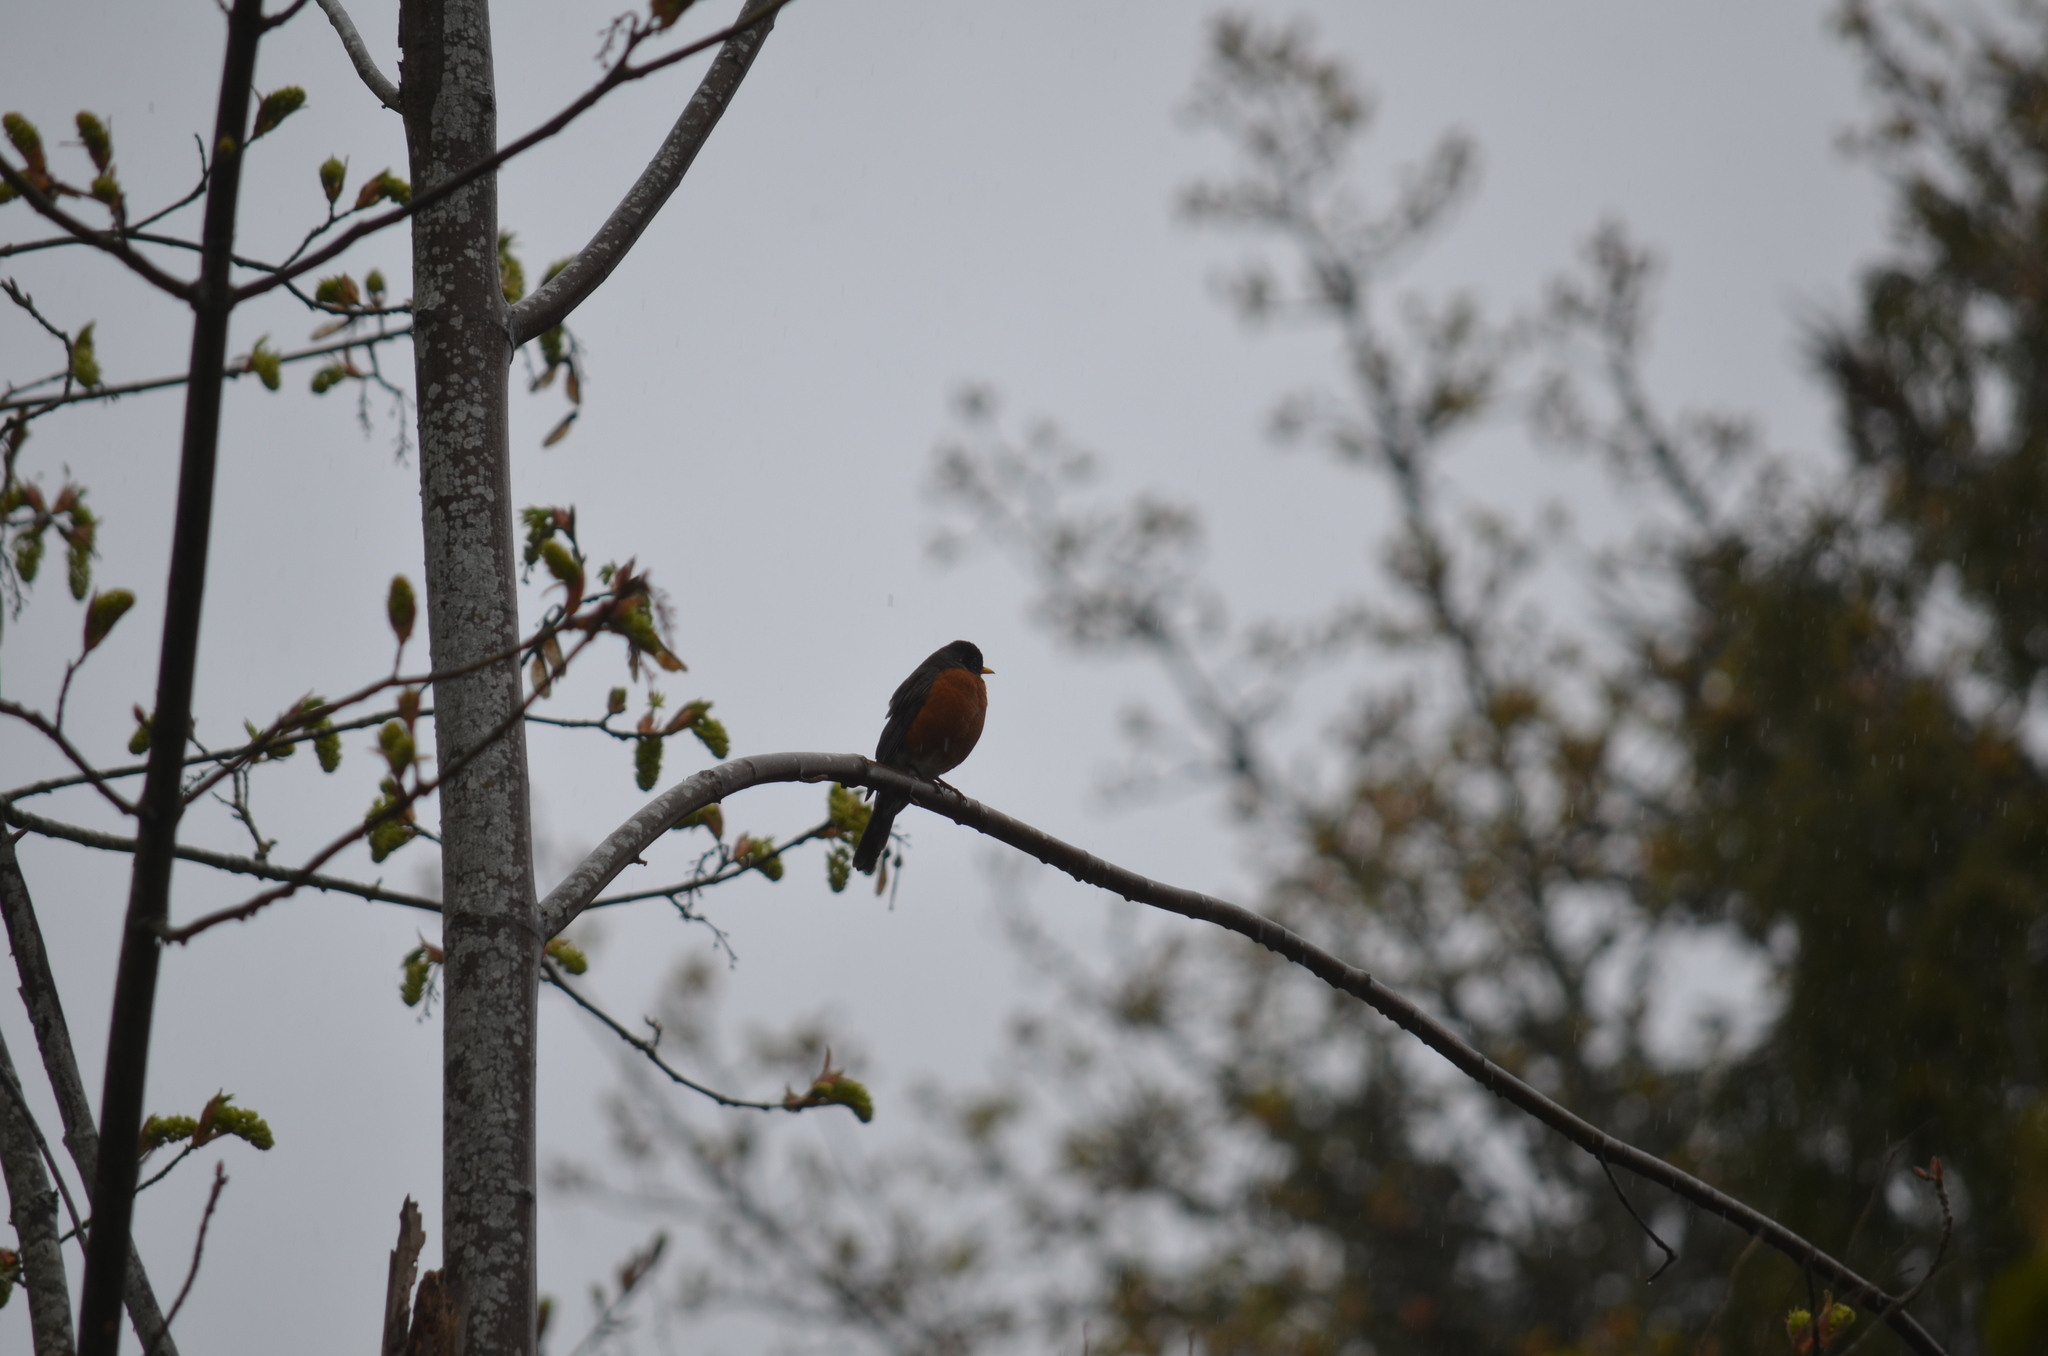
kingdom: Animalia
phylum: Chordata
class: Aves
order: Passeriformes
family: Turdidae
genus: Turdus
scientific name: Turdus migratorius
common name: American robin
